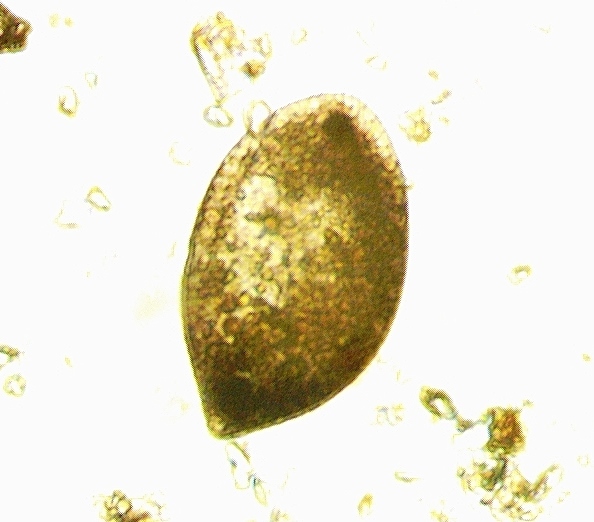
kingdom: Chromista
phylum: Ciliophora
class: Oligohymenophorea
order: Hymenostomatida
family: Frontoniidae
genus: Frontonia
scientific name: Frontonia atra
